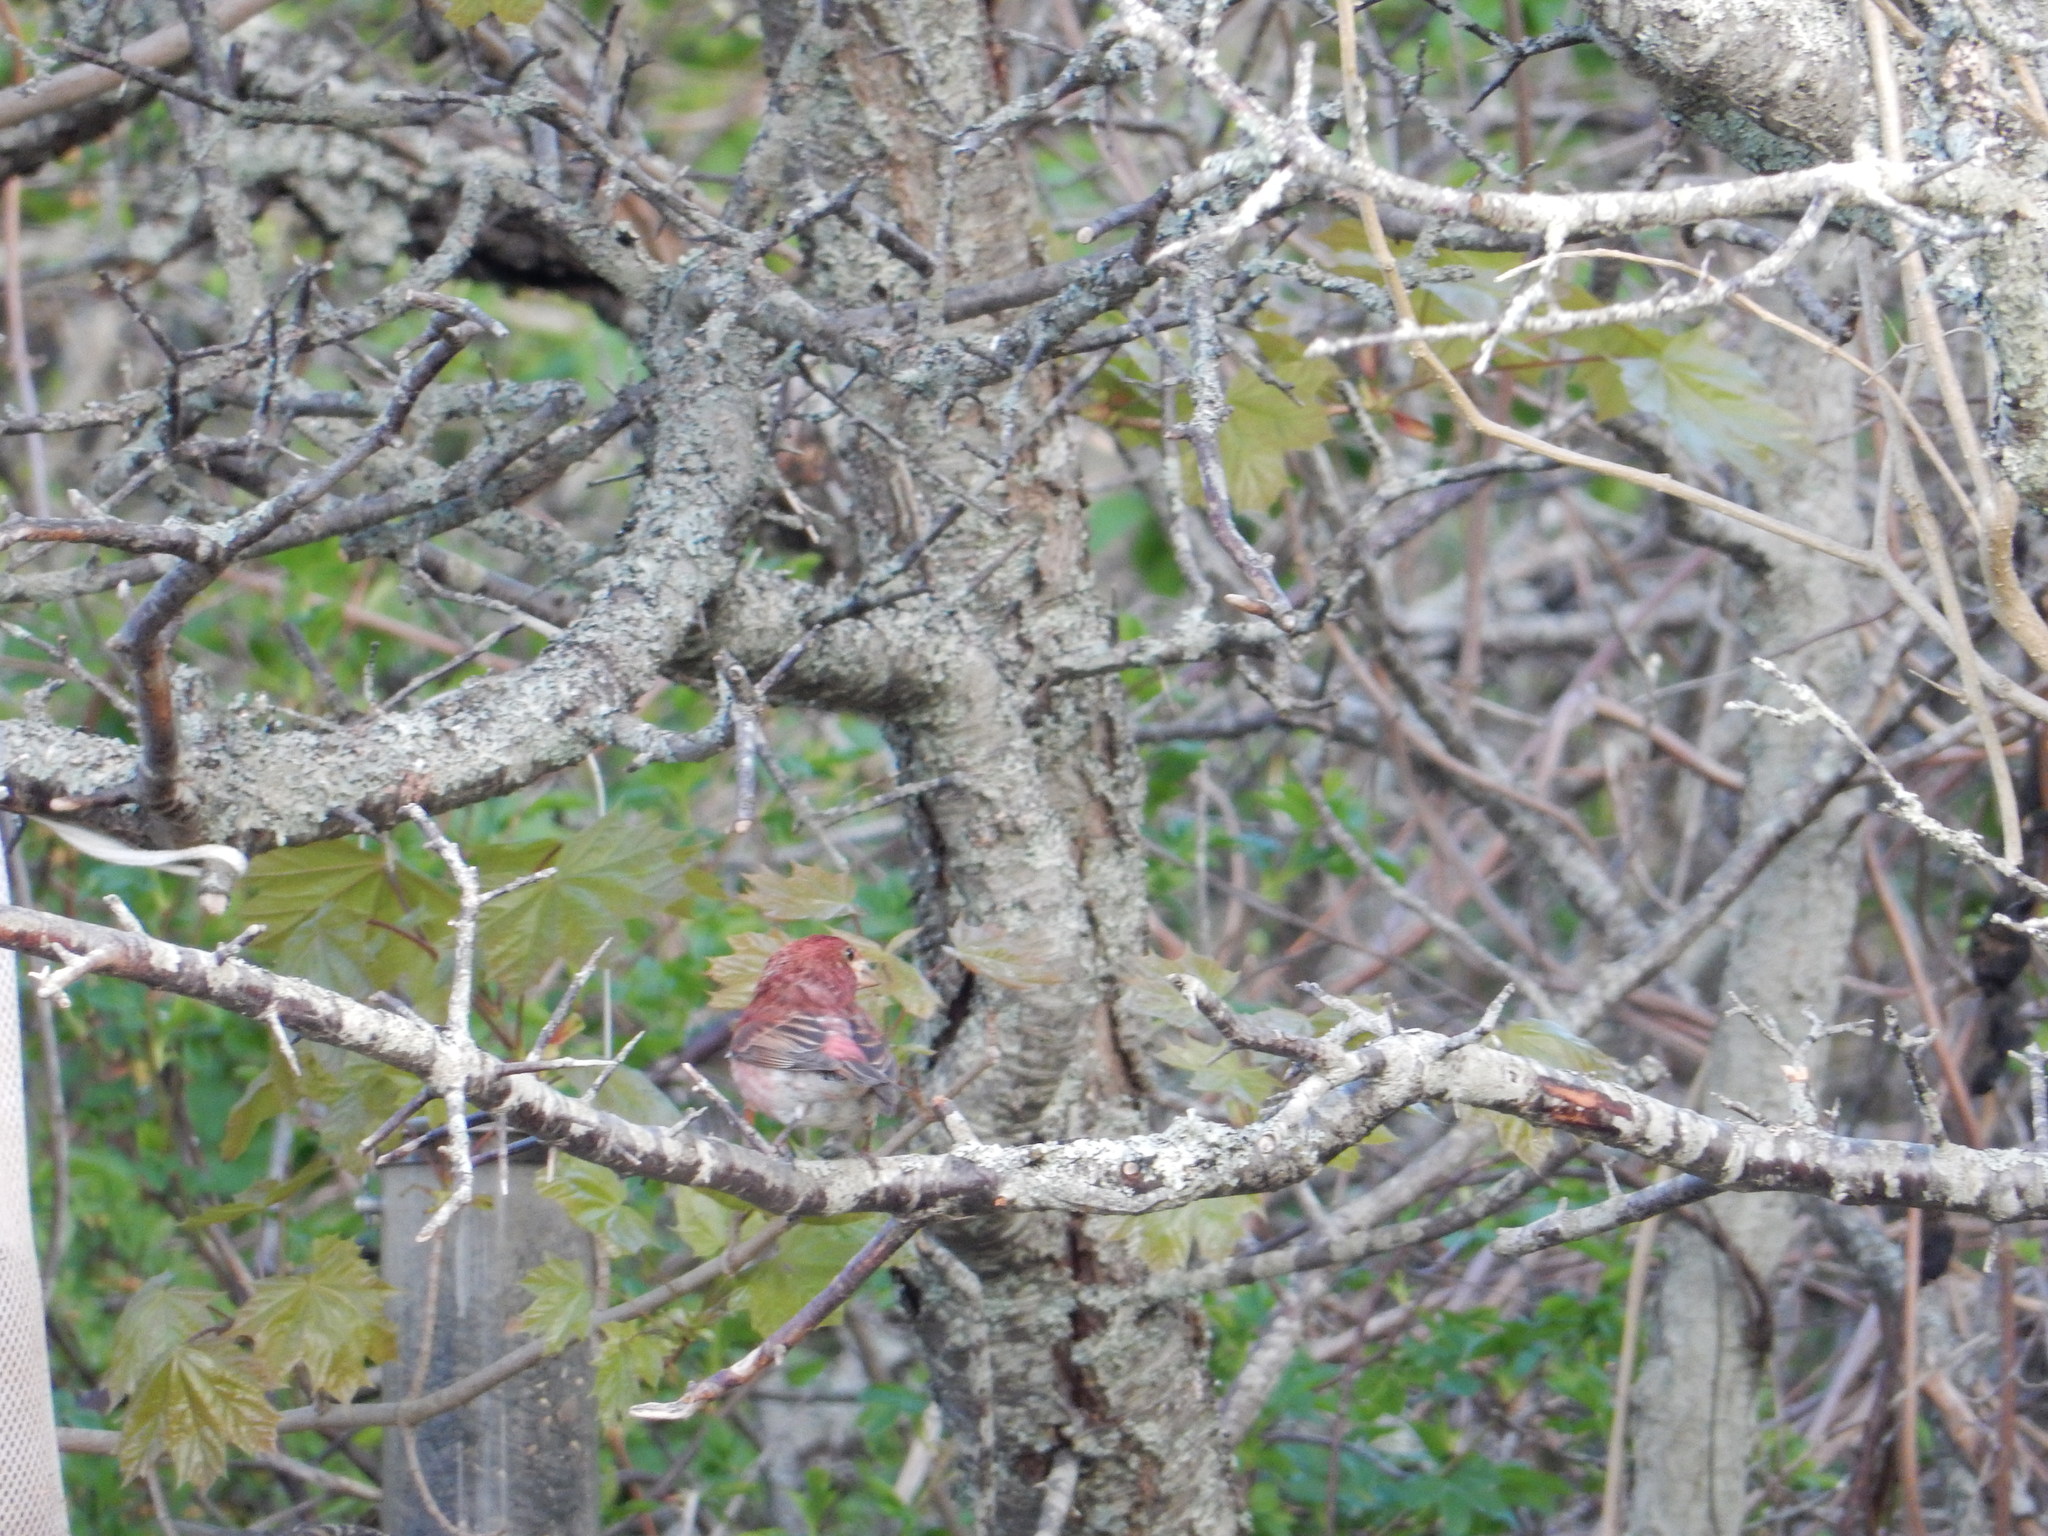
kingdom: Animalia
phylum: Chordata
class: Aves
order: Passeriformes
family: Fringillidae
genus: Haemorhous
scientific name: Haemorhous purpureus
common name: Purple finch
